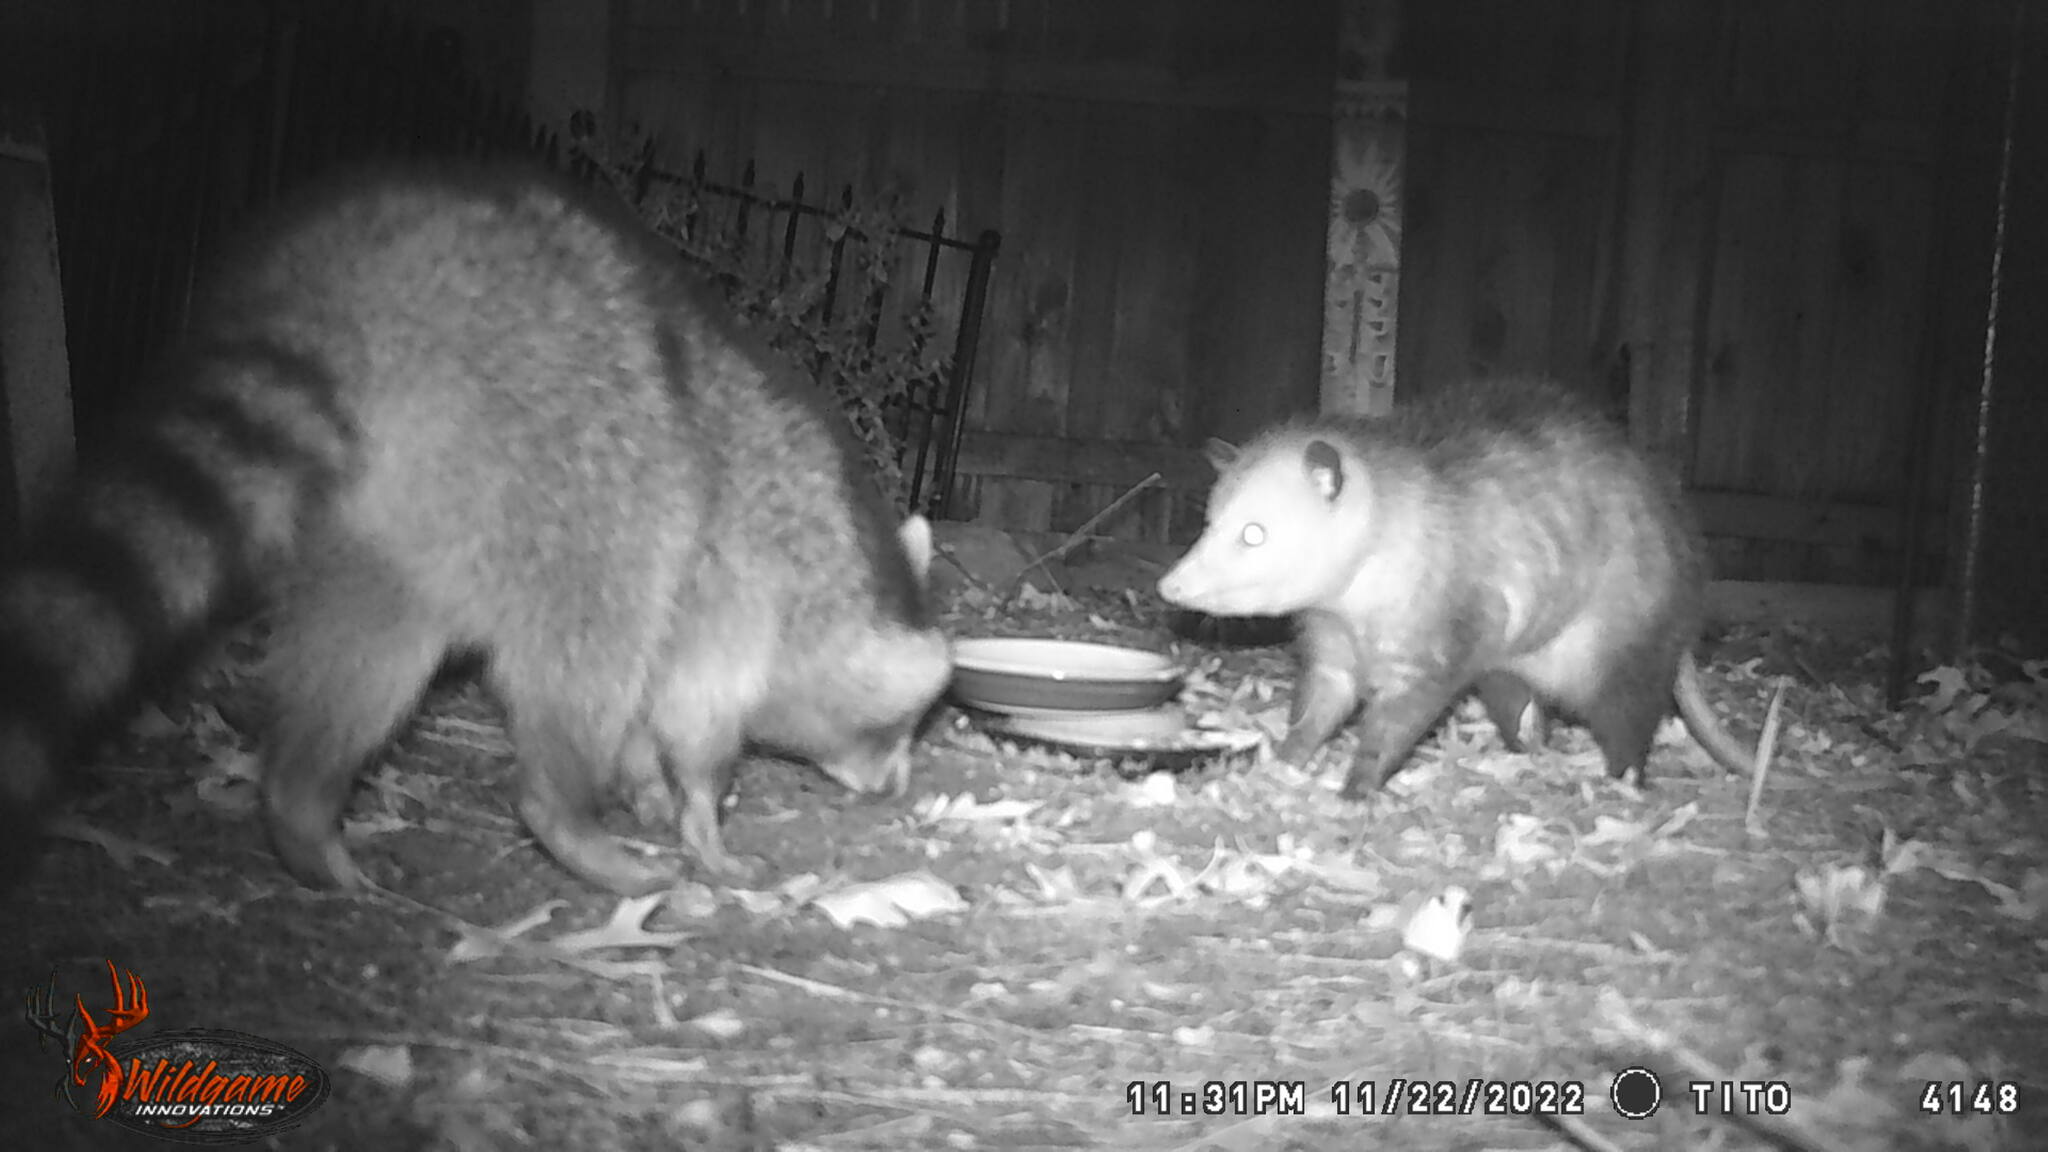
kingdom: Animalia
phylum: Chordata
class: Mammalia
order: Carnivora
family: Procyonidae
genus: Procyon
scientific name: Procyon lotor
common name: Raccoon
